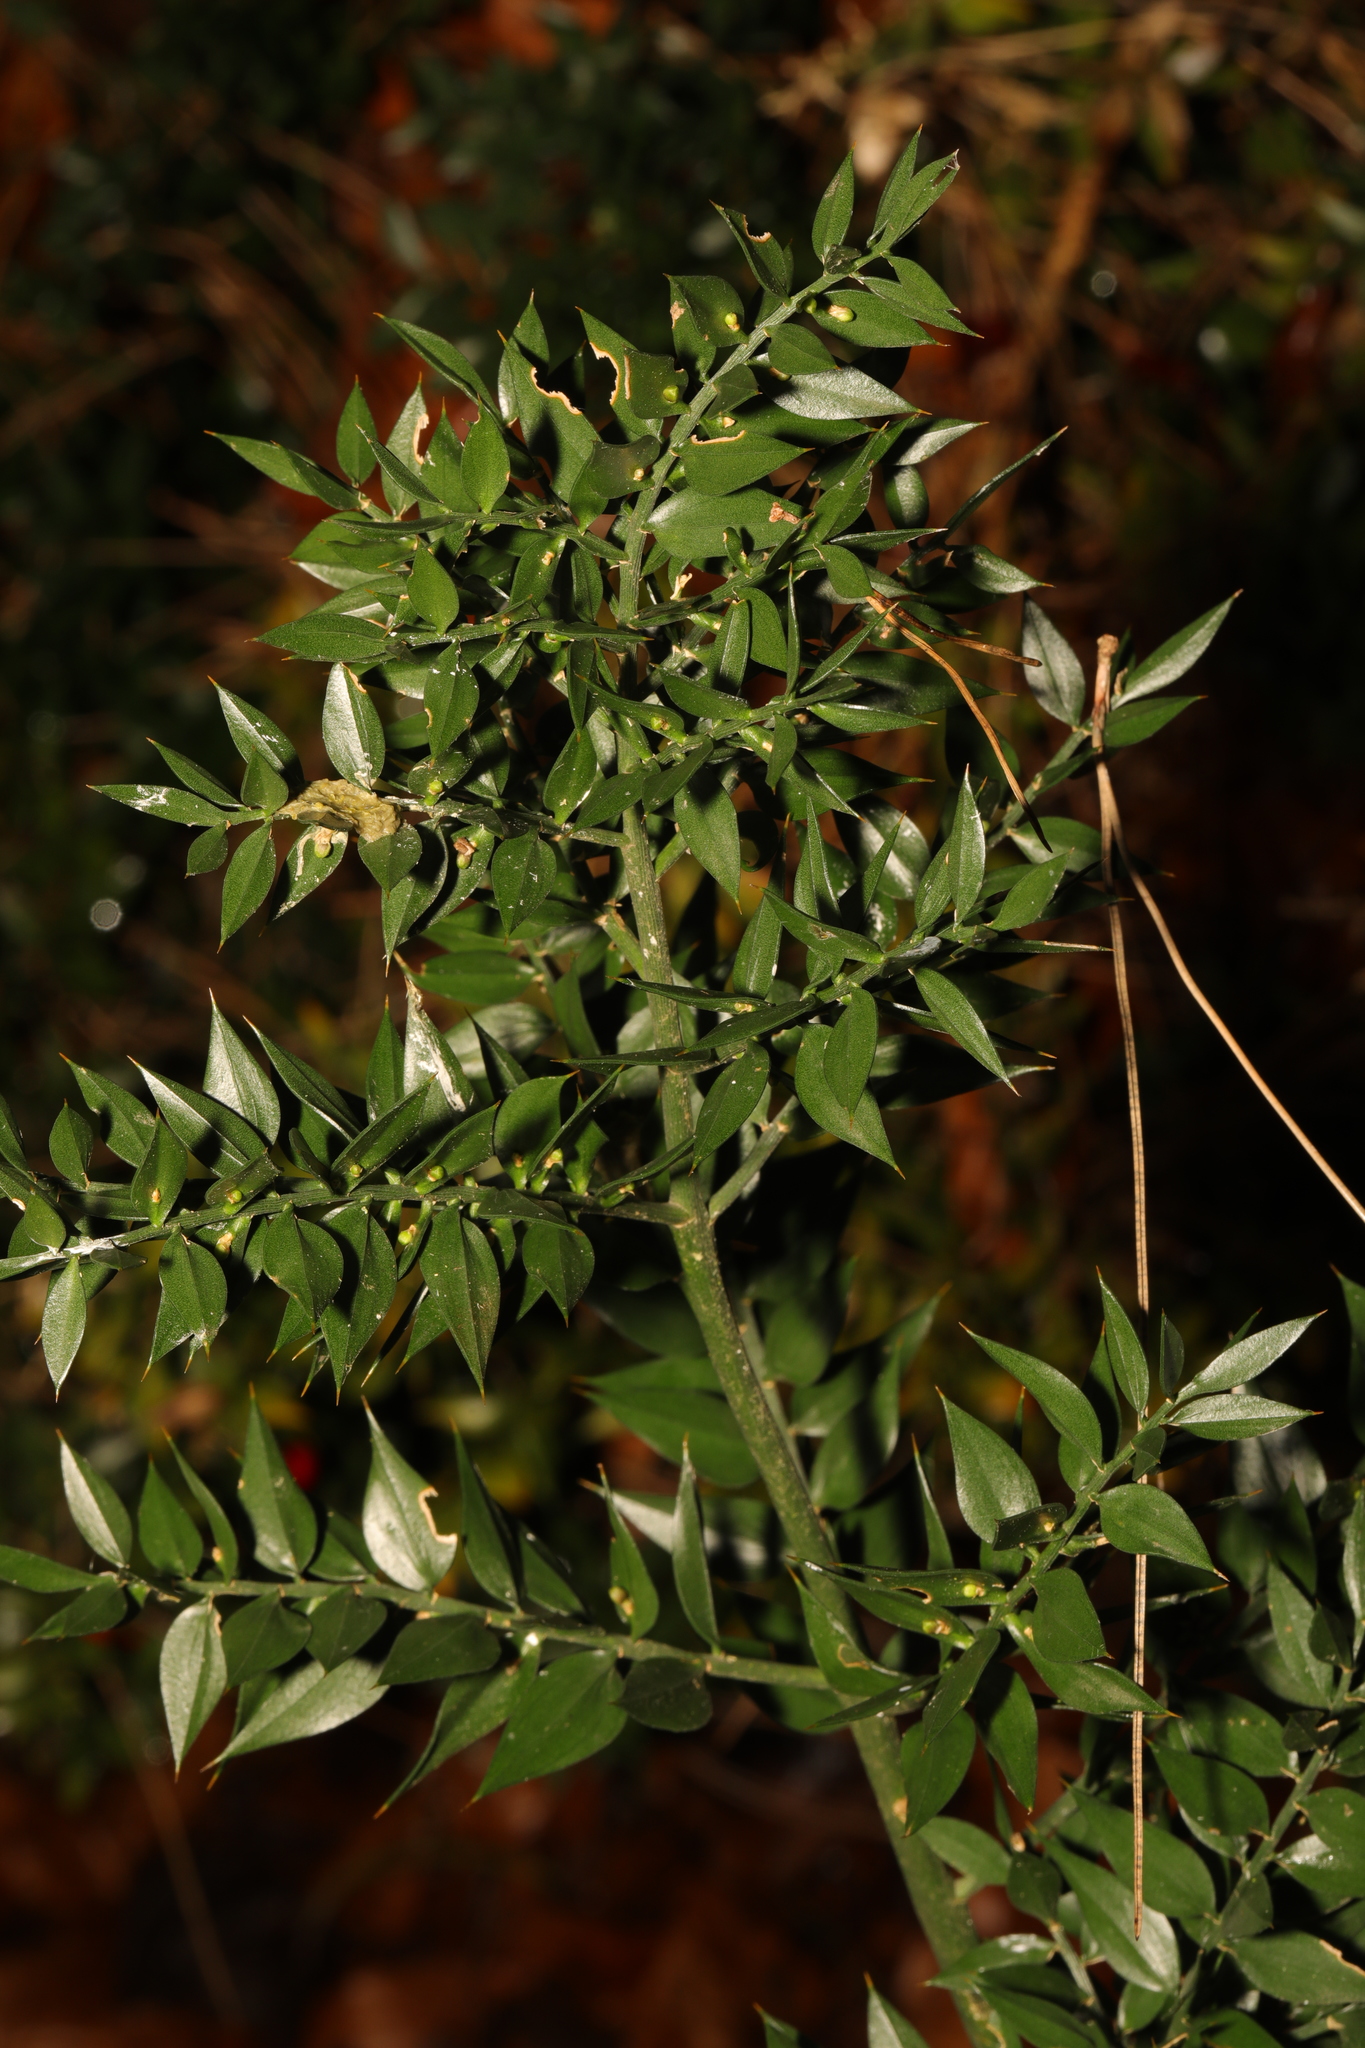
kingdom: Plantae
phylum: Tracheophyta
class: Liliopsida
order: Asparagales
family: Asparagaceae
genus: Ruscus
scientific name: Ruscus aculeatus
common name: Butcher's-broom
